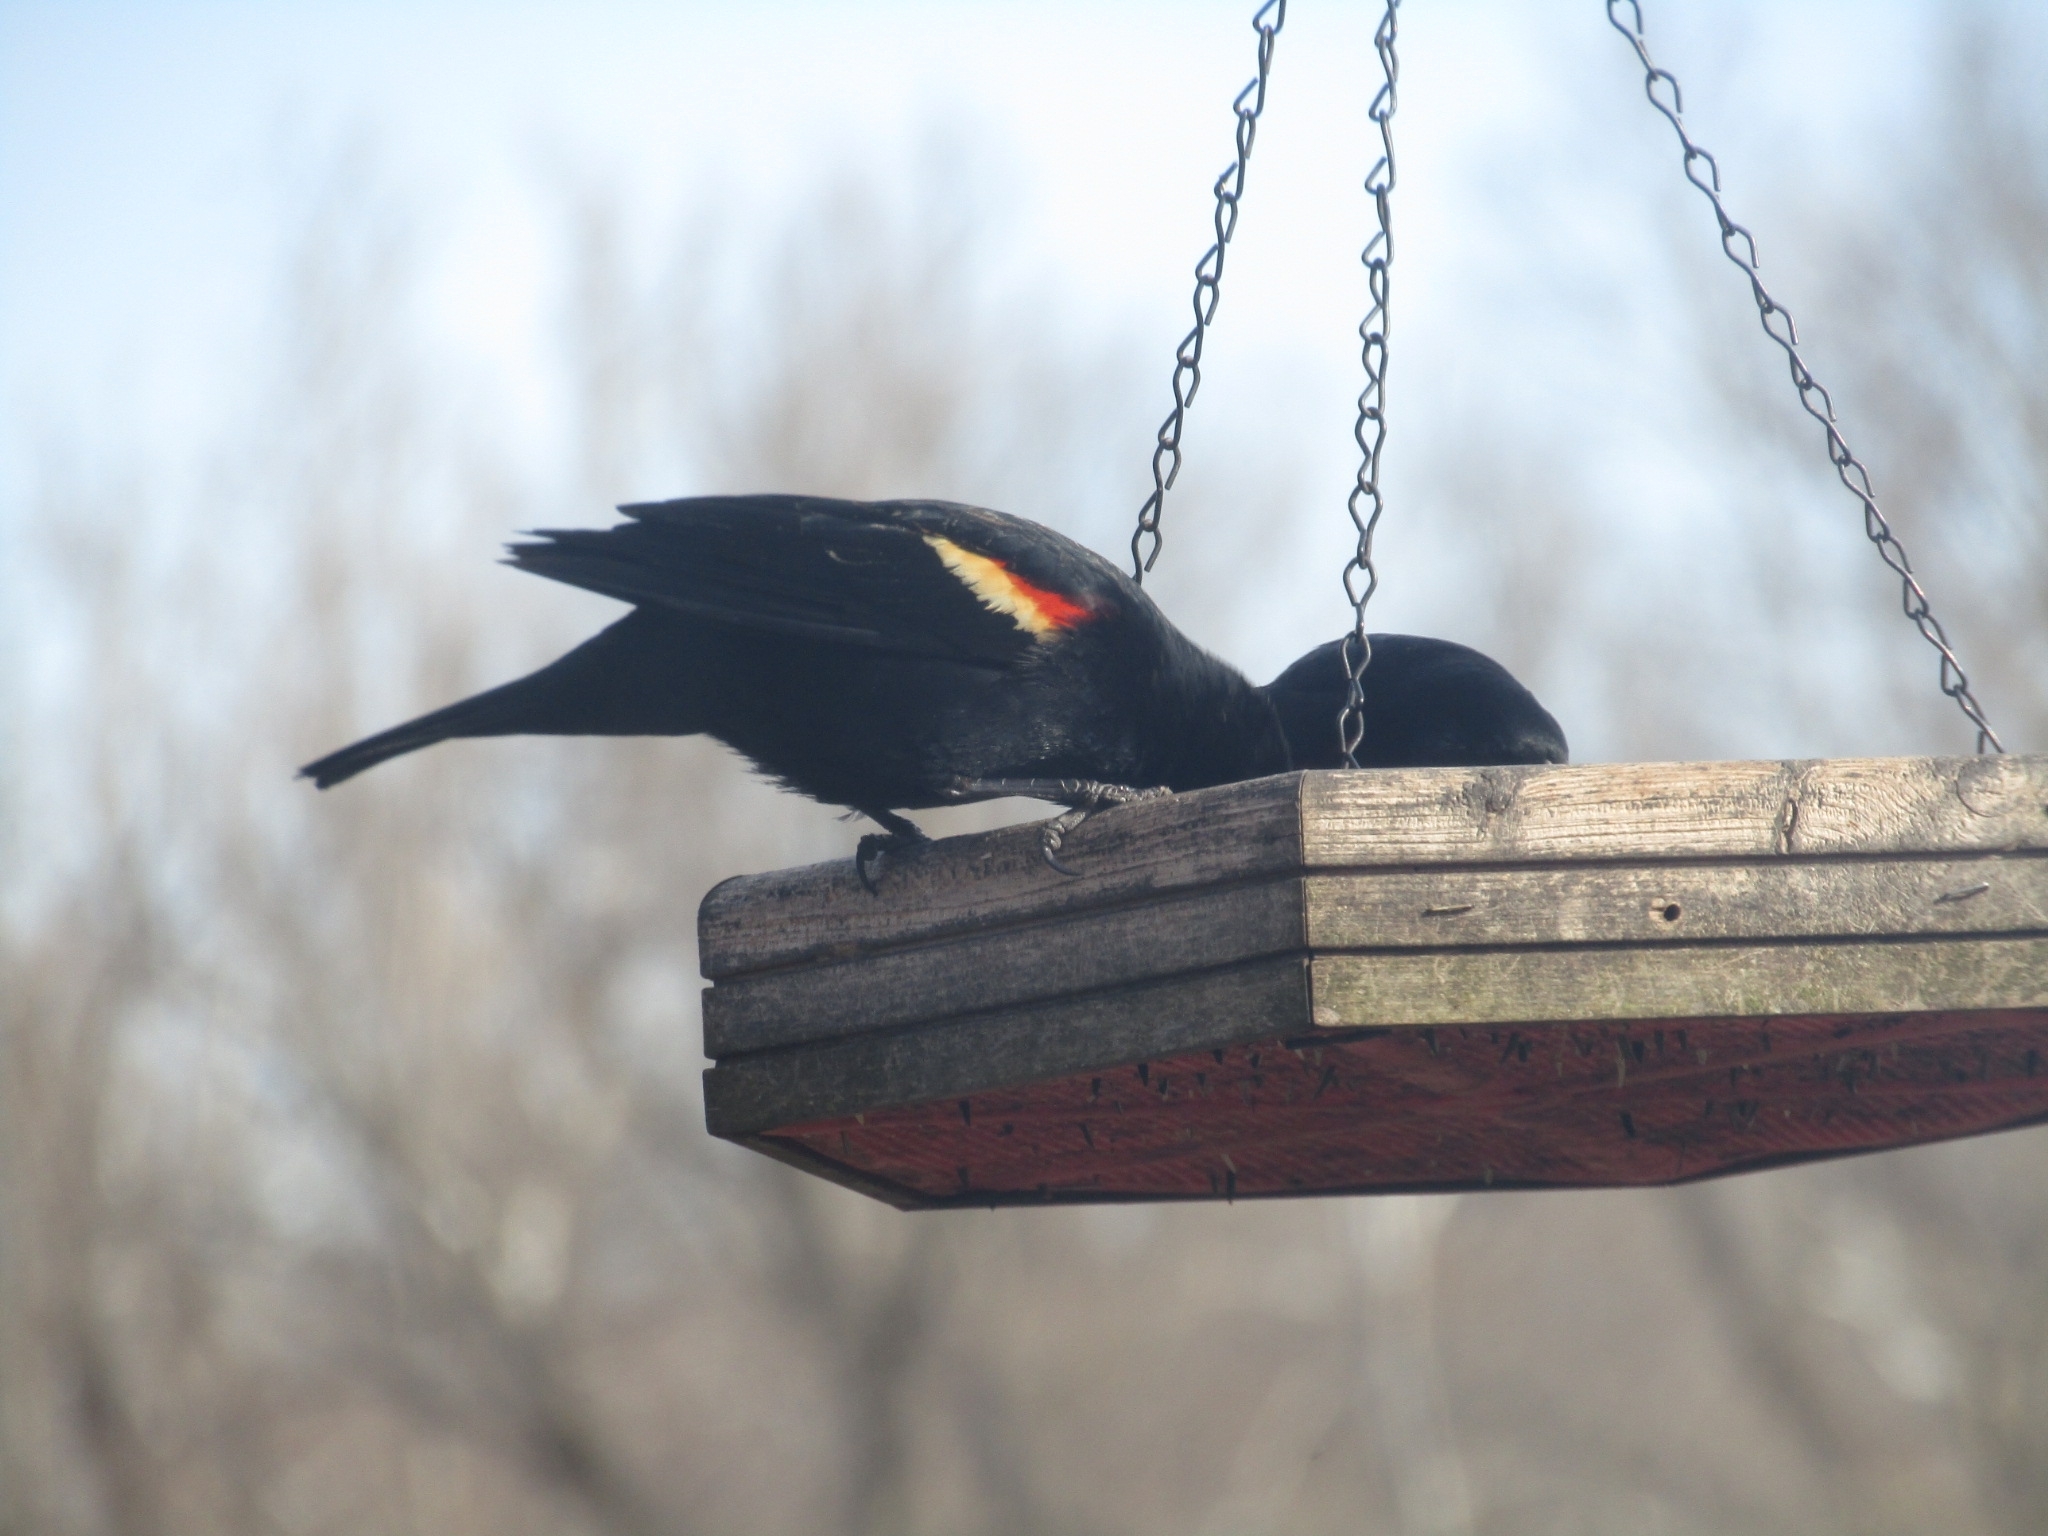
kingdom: Animalia
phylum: Chordata
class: Aves
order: Passeriformes
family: Icteridae
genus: Agelaius
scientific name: Agelaius phoeniceus
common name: Red-winged blackbird
